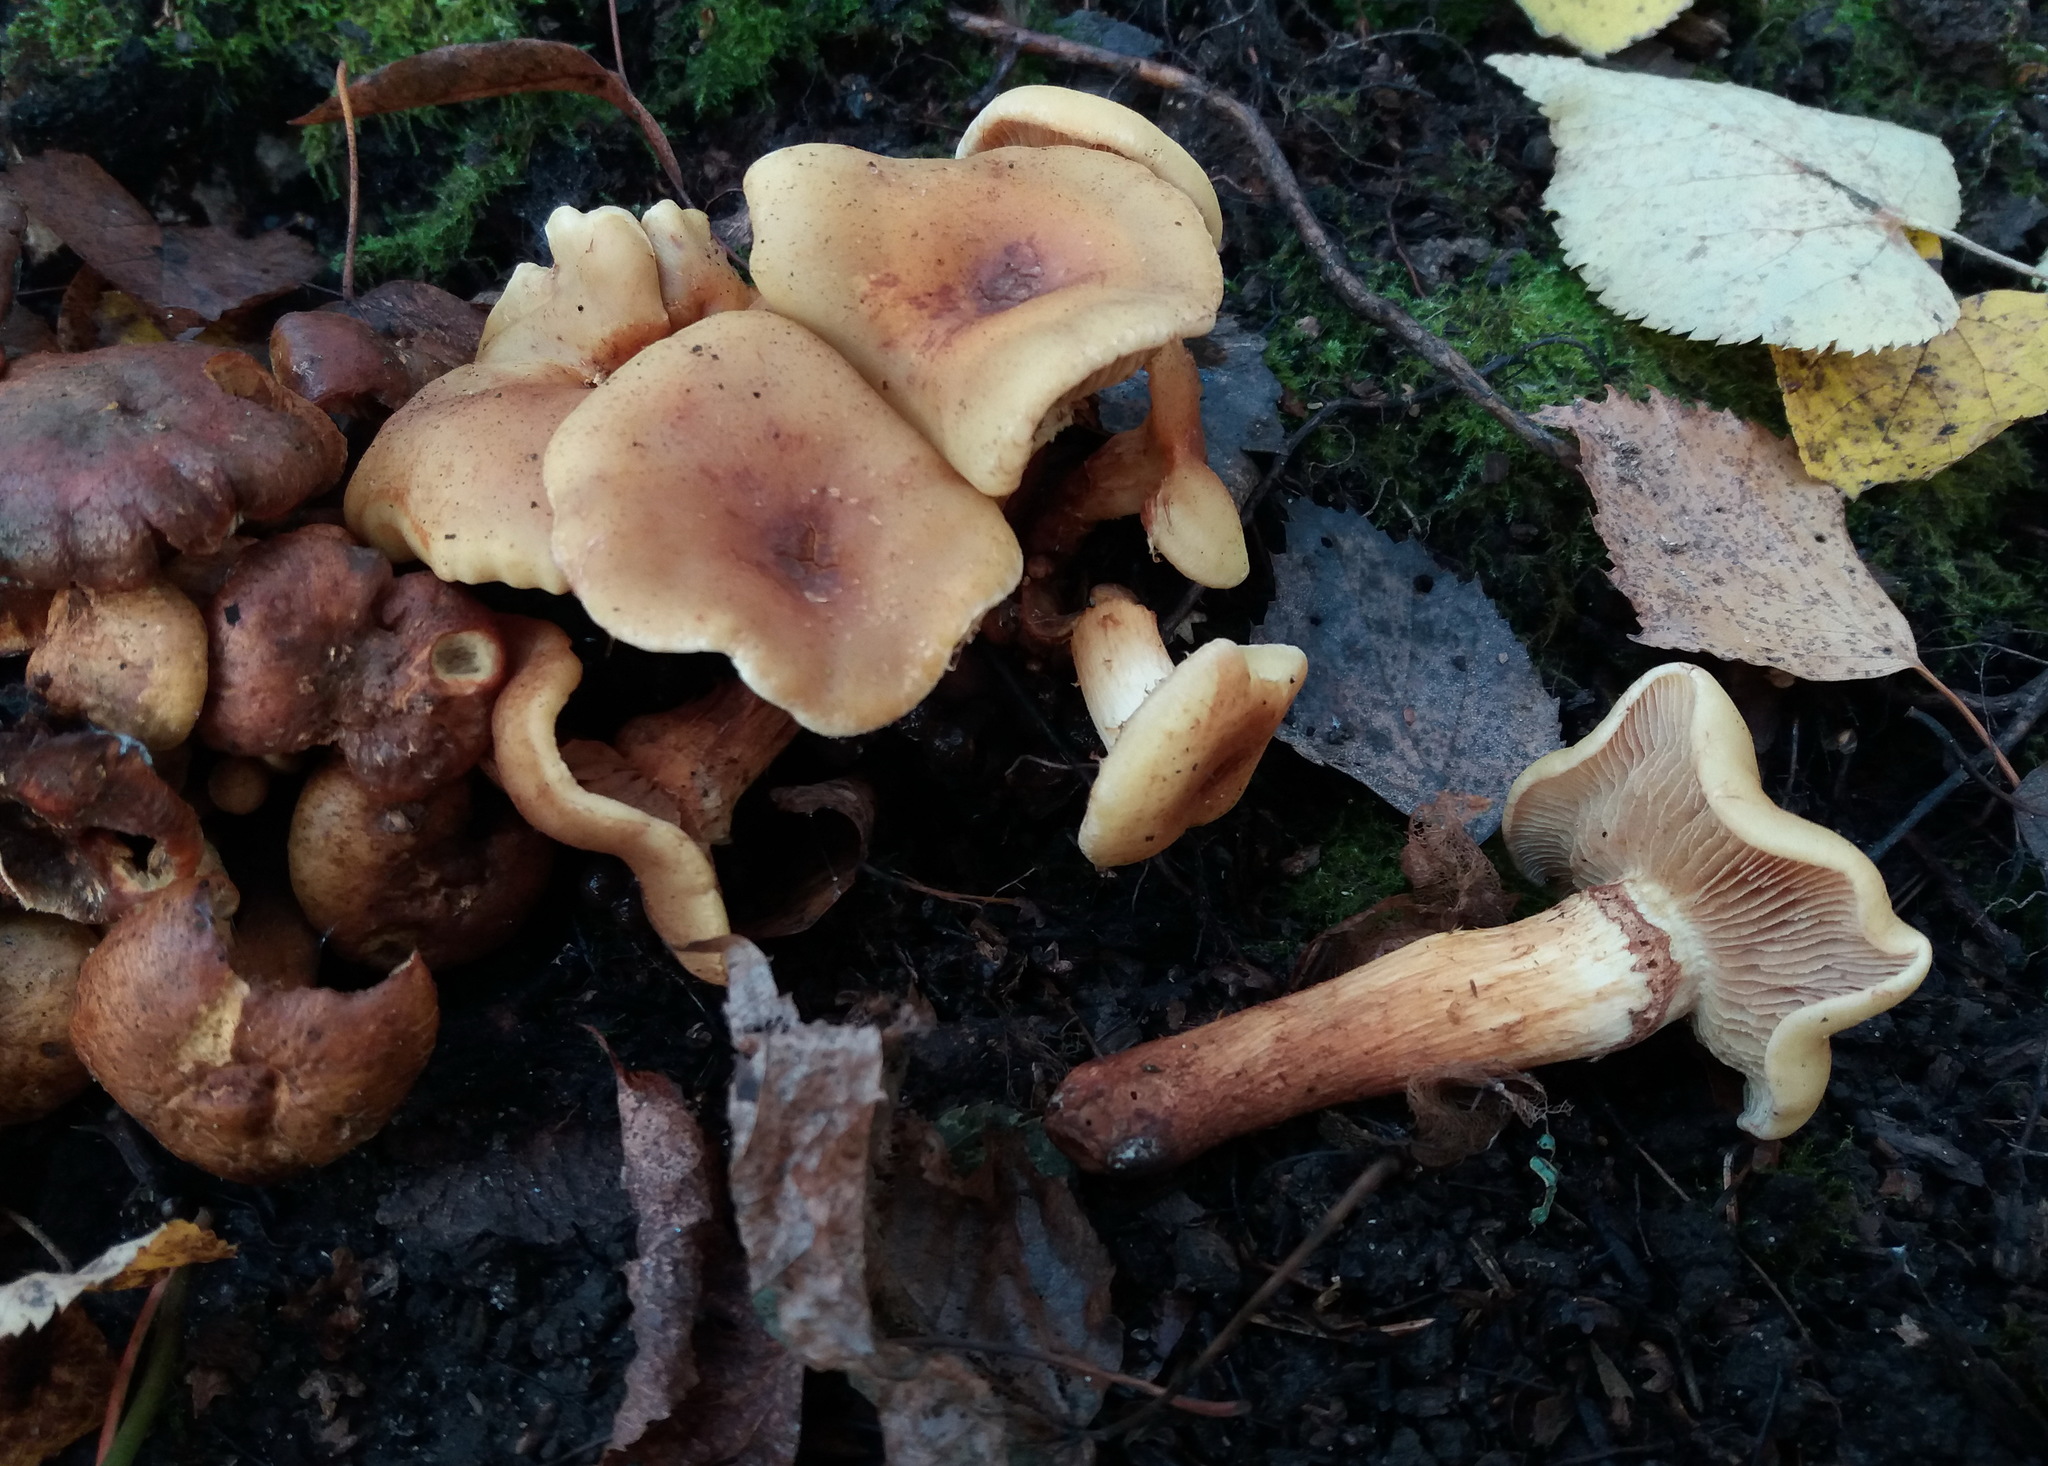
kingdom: Fungi
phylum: Basidiomycota
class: Agaricomycetes
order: Agaricales
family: Hymenogastraceae
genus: Flammula
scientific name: Flammula alnicola
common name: Alder scalycap
